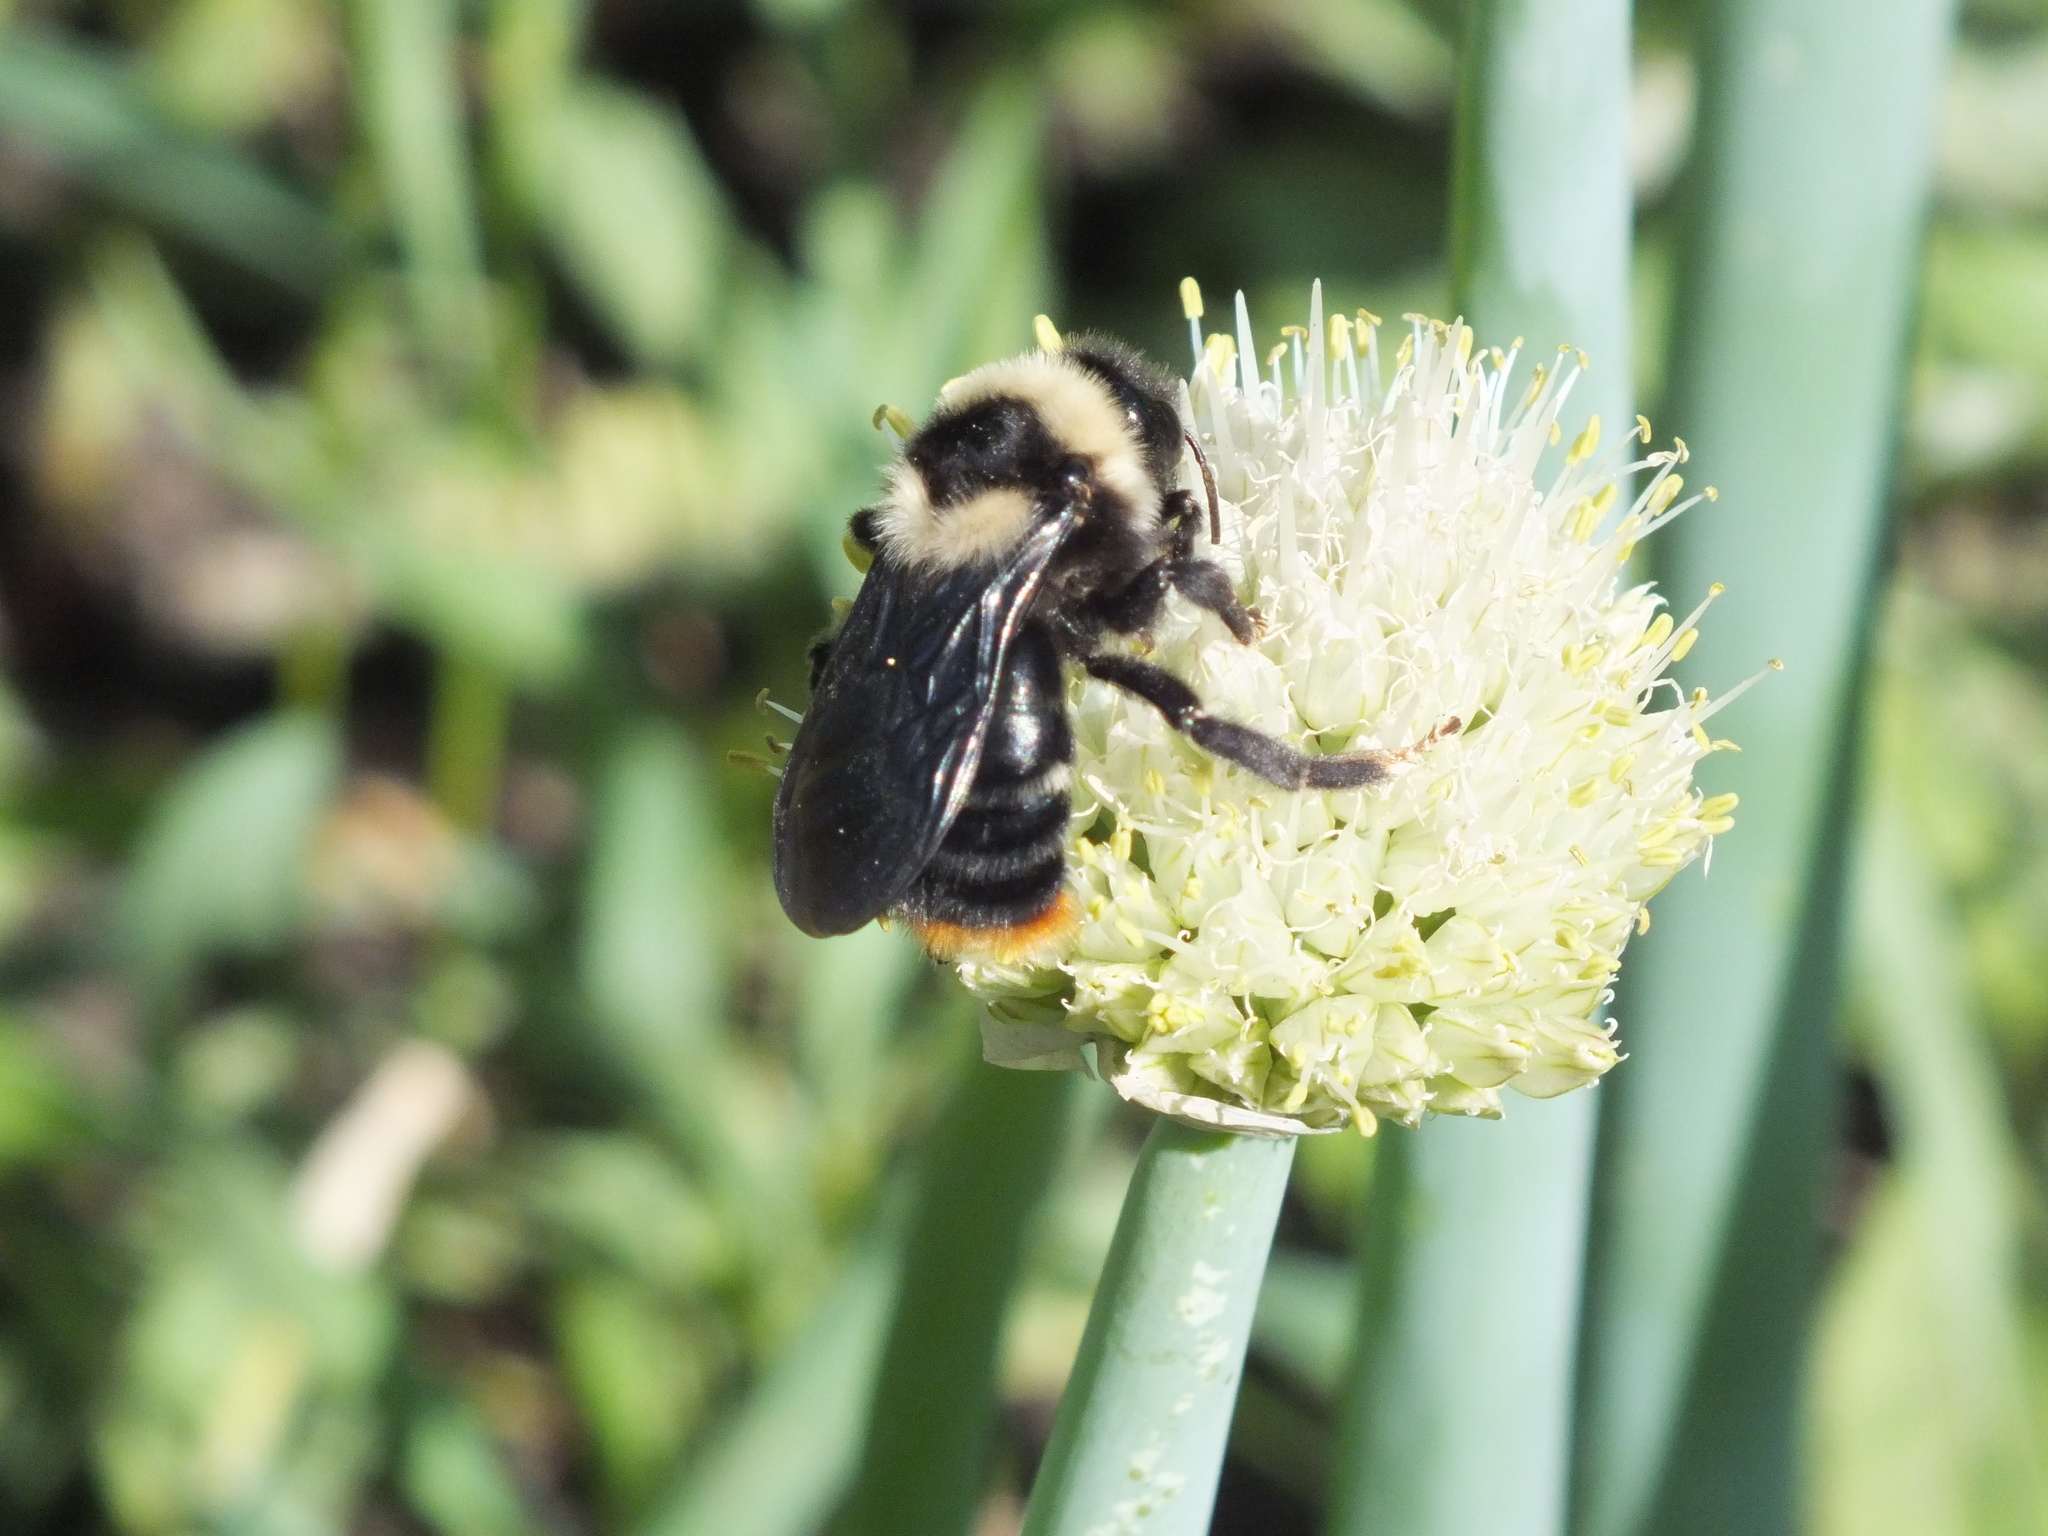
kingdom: Animalia
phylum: Arthropoda
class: Insecta
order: Hymenoptera
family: Apidae
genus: Bombus
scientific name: Bombus rupestris
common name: Hill cuckoo-bee
